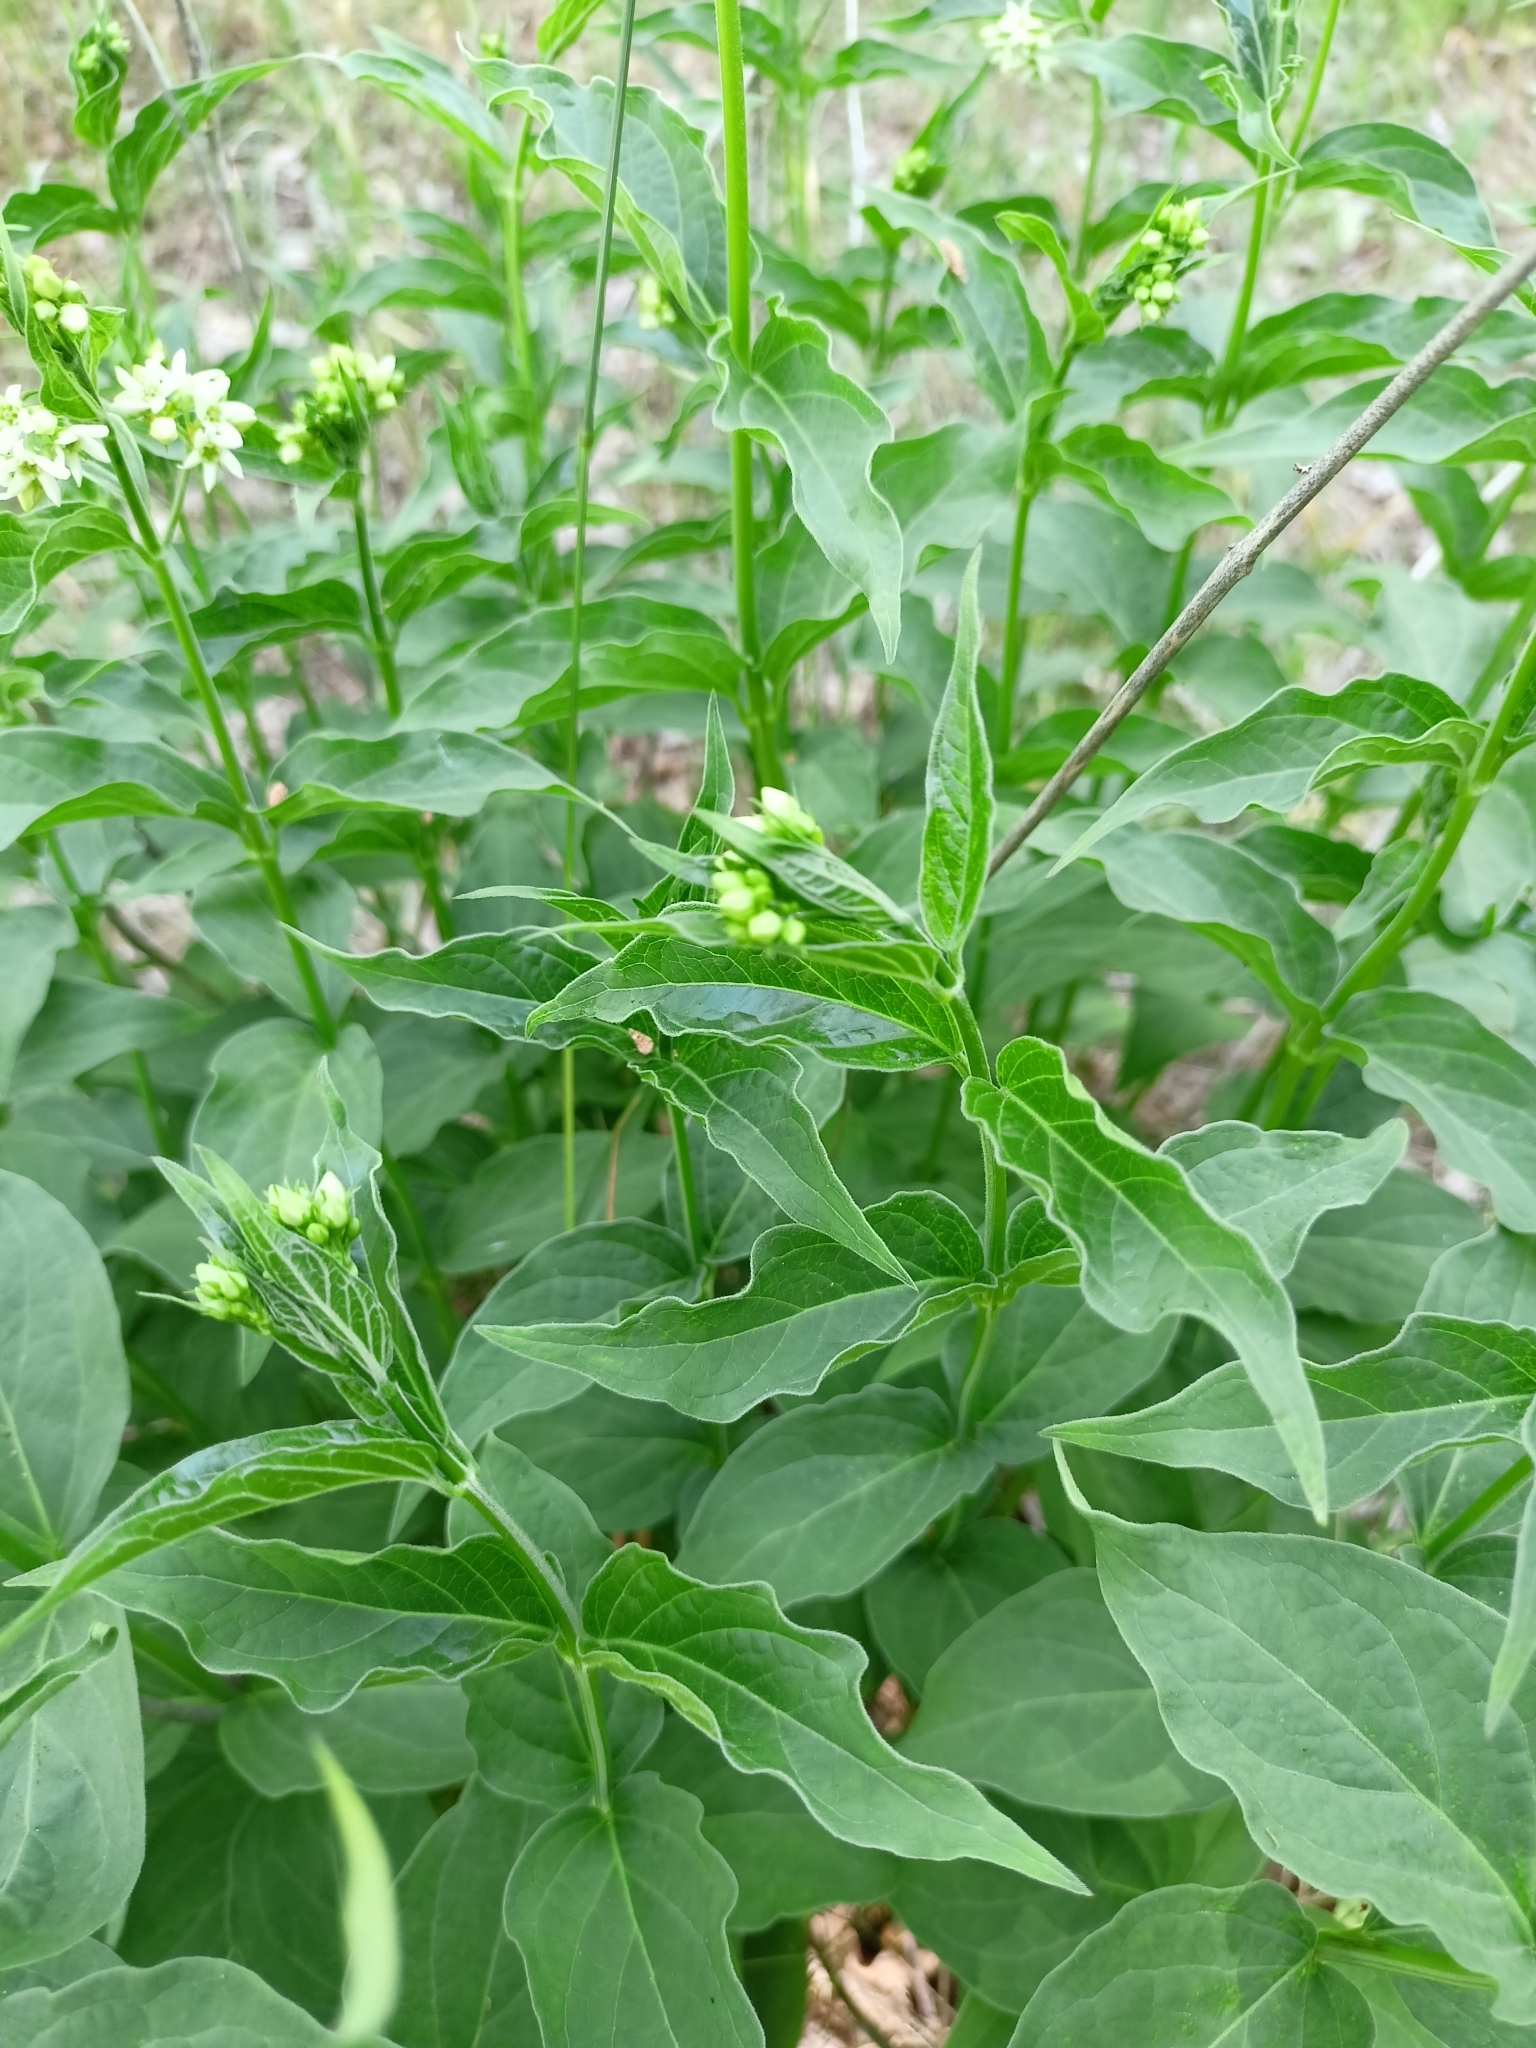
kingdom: Plantae
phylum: Tracheophyta
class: Magnoliopsida
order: Gentianales
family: Apocynaceae
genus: Vincetoxicum
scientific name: Vincetoxicum hirundinaria
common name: White swallowwort
